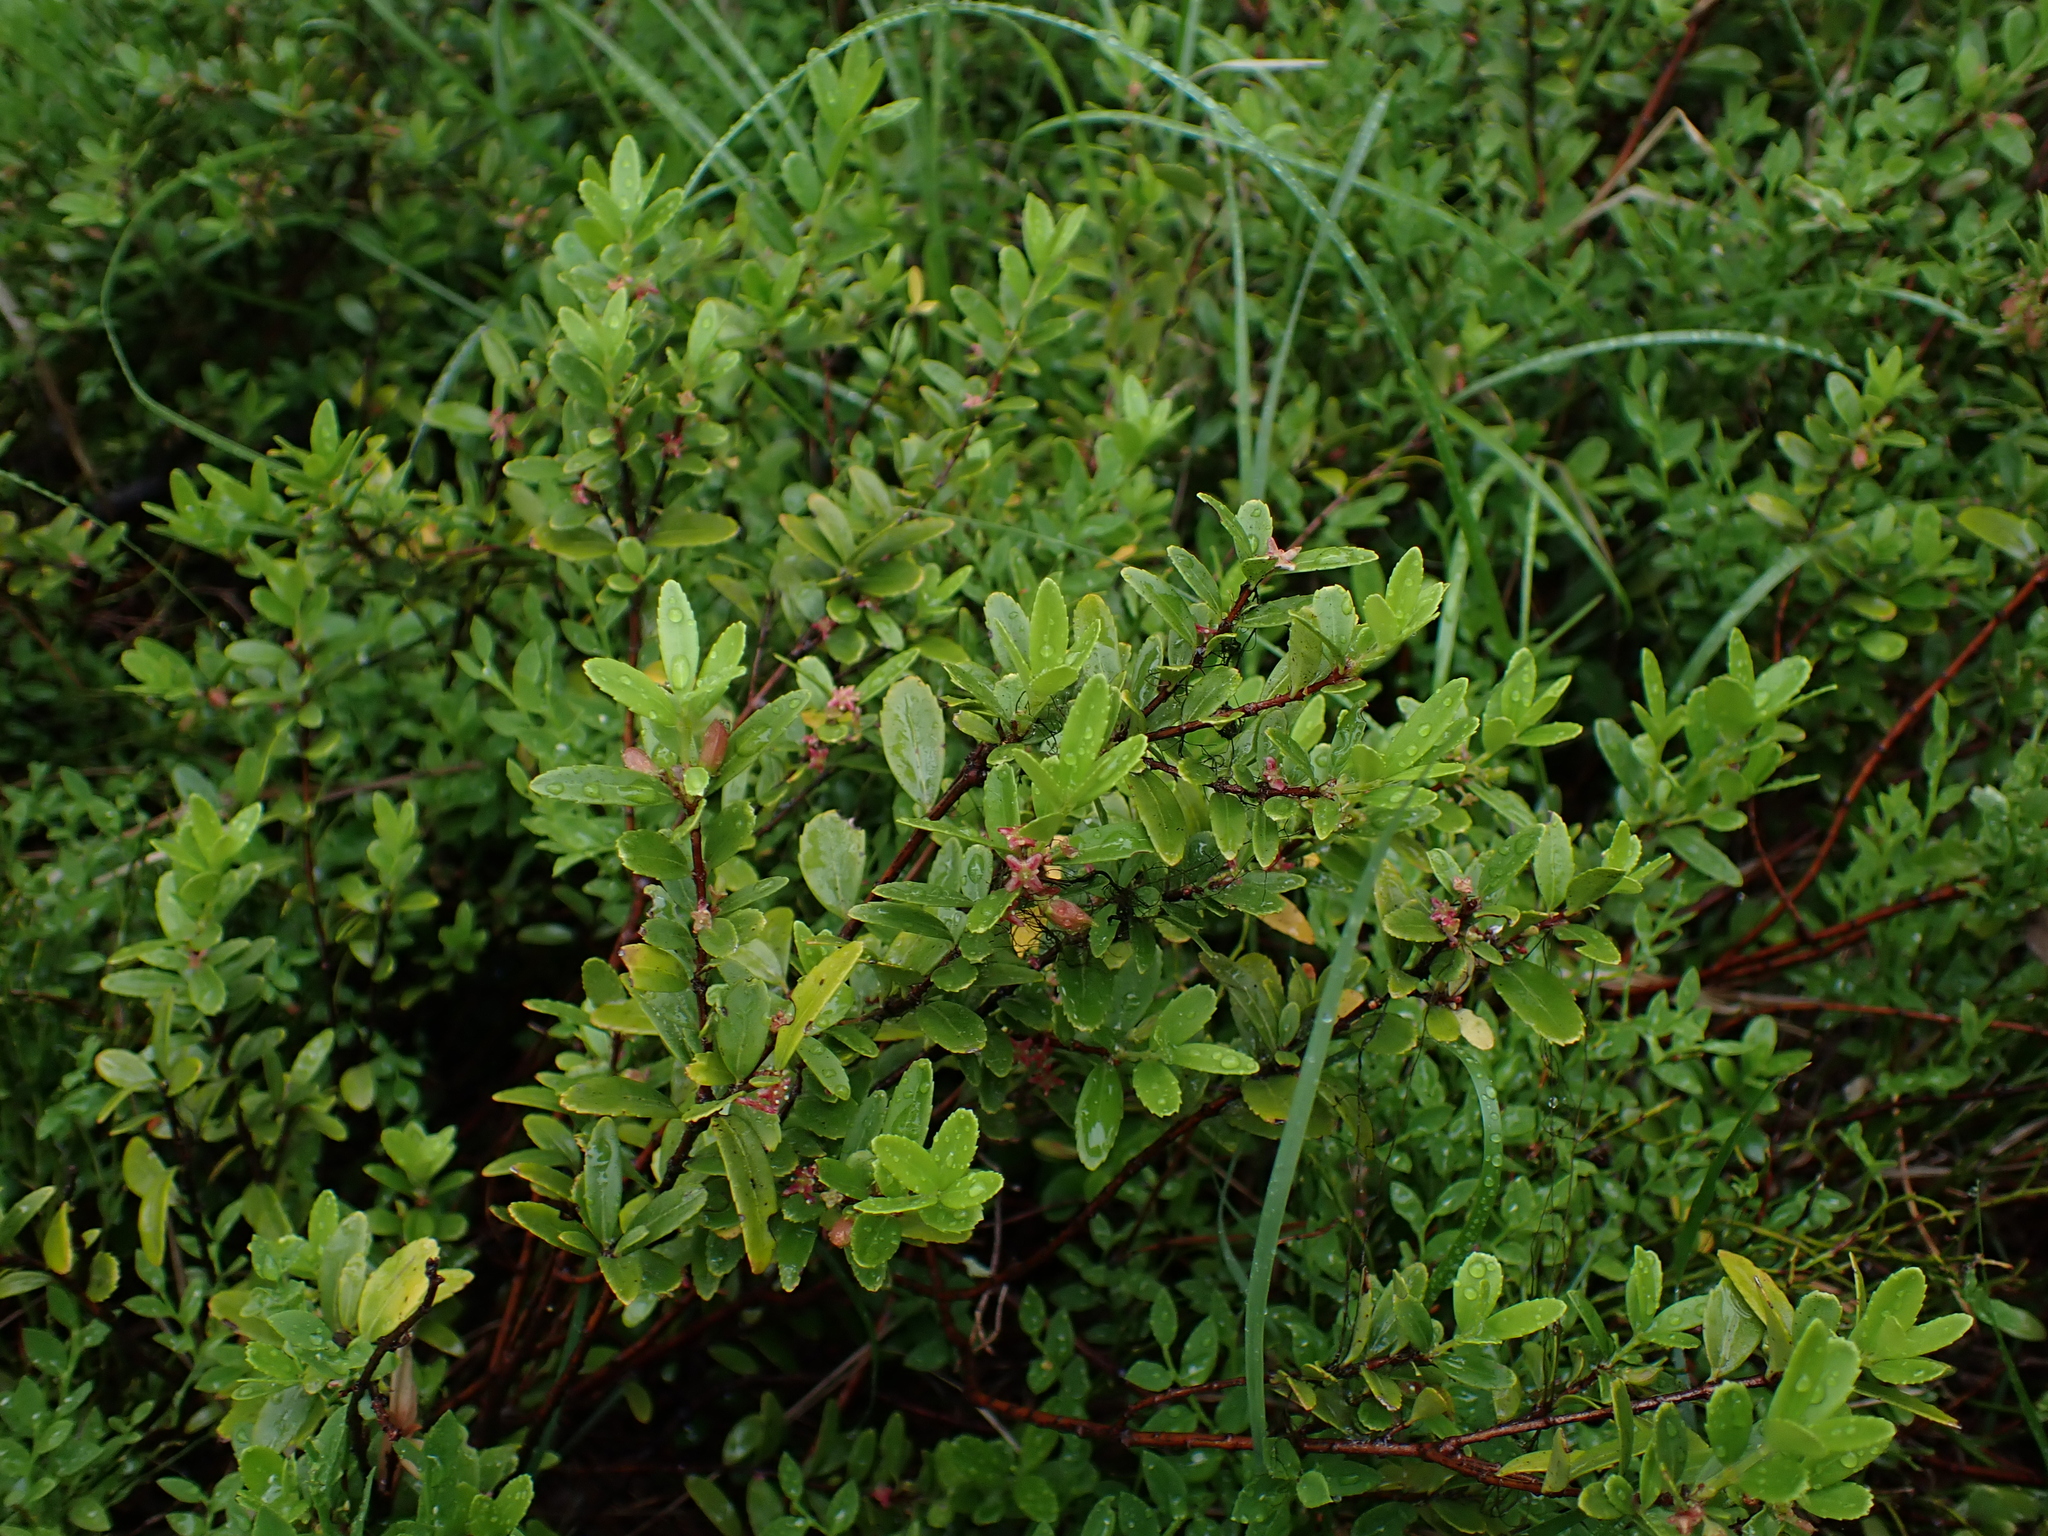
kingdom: Plantae
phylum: Tracheophyta
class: Magnoliopsida
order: Celastrales
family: Celastraceae
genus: Paxistima
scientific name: Paxistima myrsinites
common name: Mountain-lover
